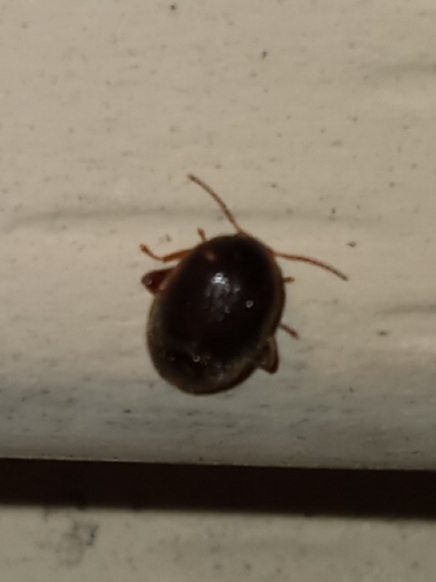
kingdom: Animalia
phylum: Arthropoda
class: Insecta
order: Coleoptera
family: Scirtidae
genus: Scirtes
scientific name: Scirtes tibialis
